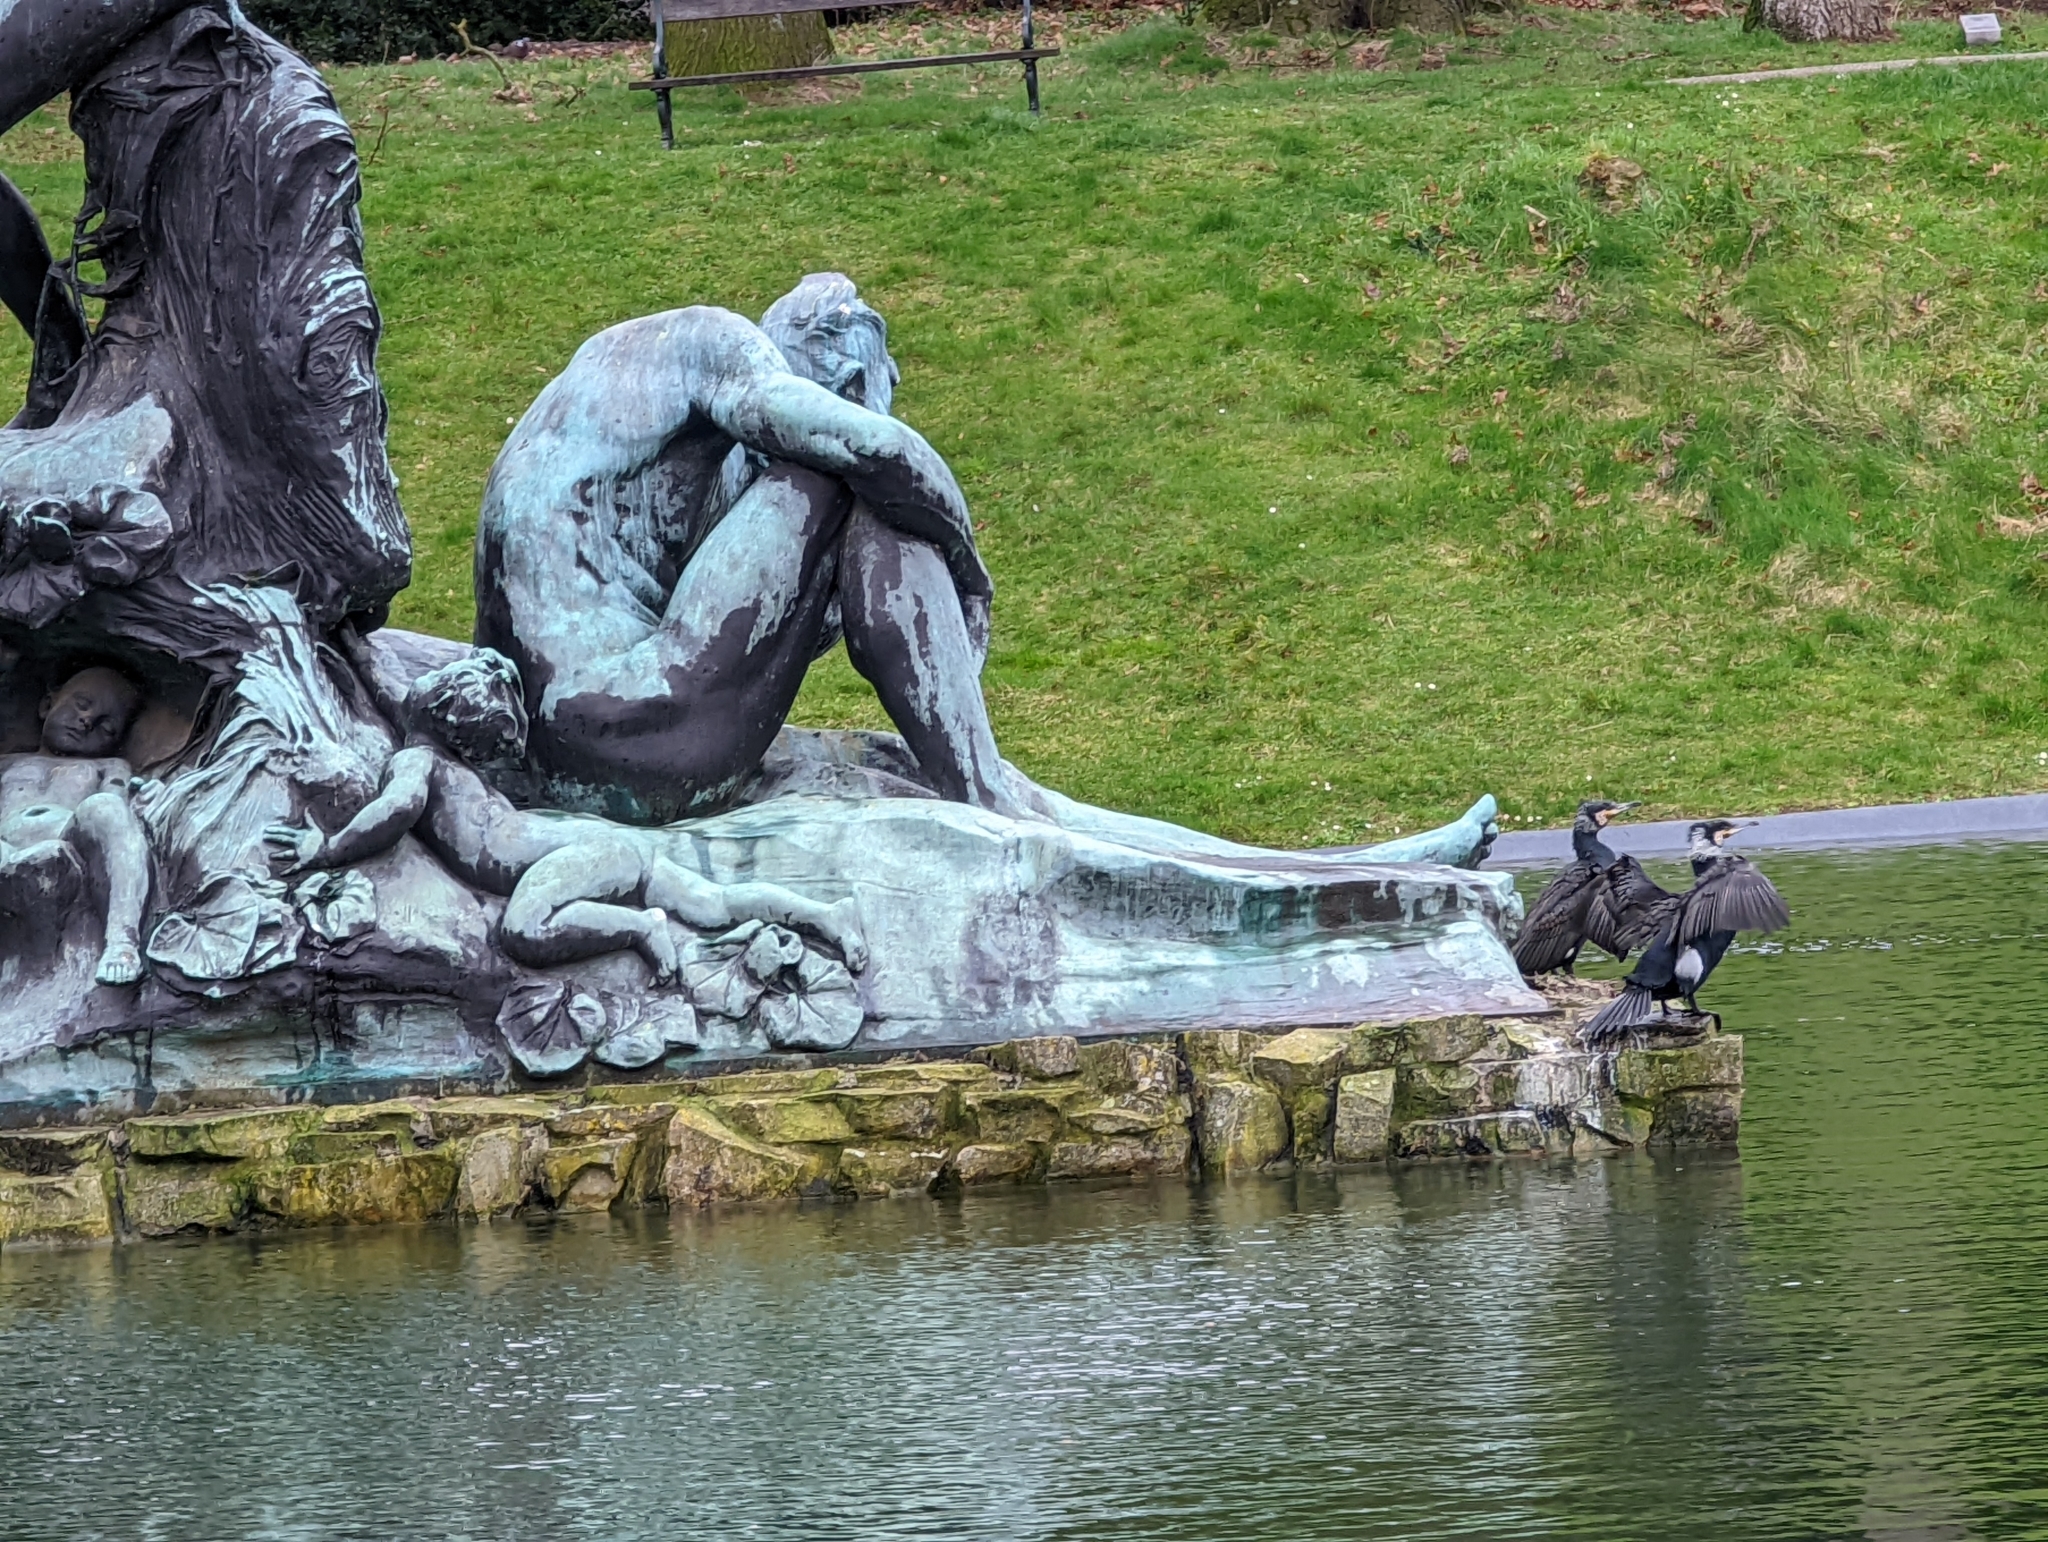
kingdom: Animalia
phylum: Chordata
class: Aves
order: Suliformes
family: Phalacrocoracidae
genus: Phalacrocorax
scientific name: Phalacrocorax carbo
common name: Great cormorant
